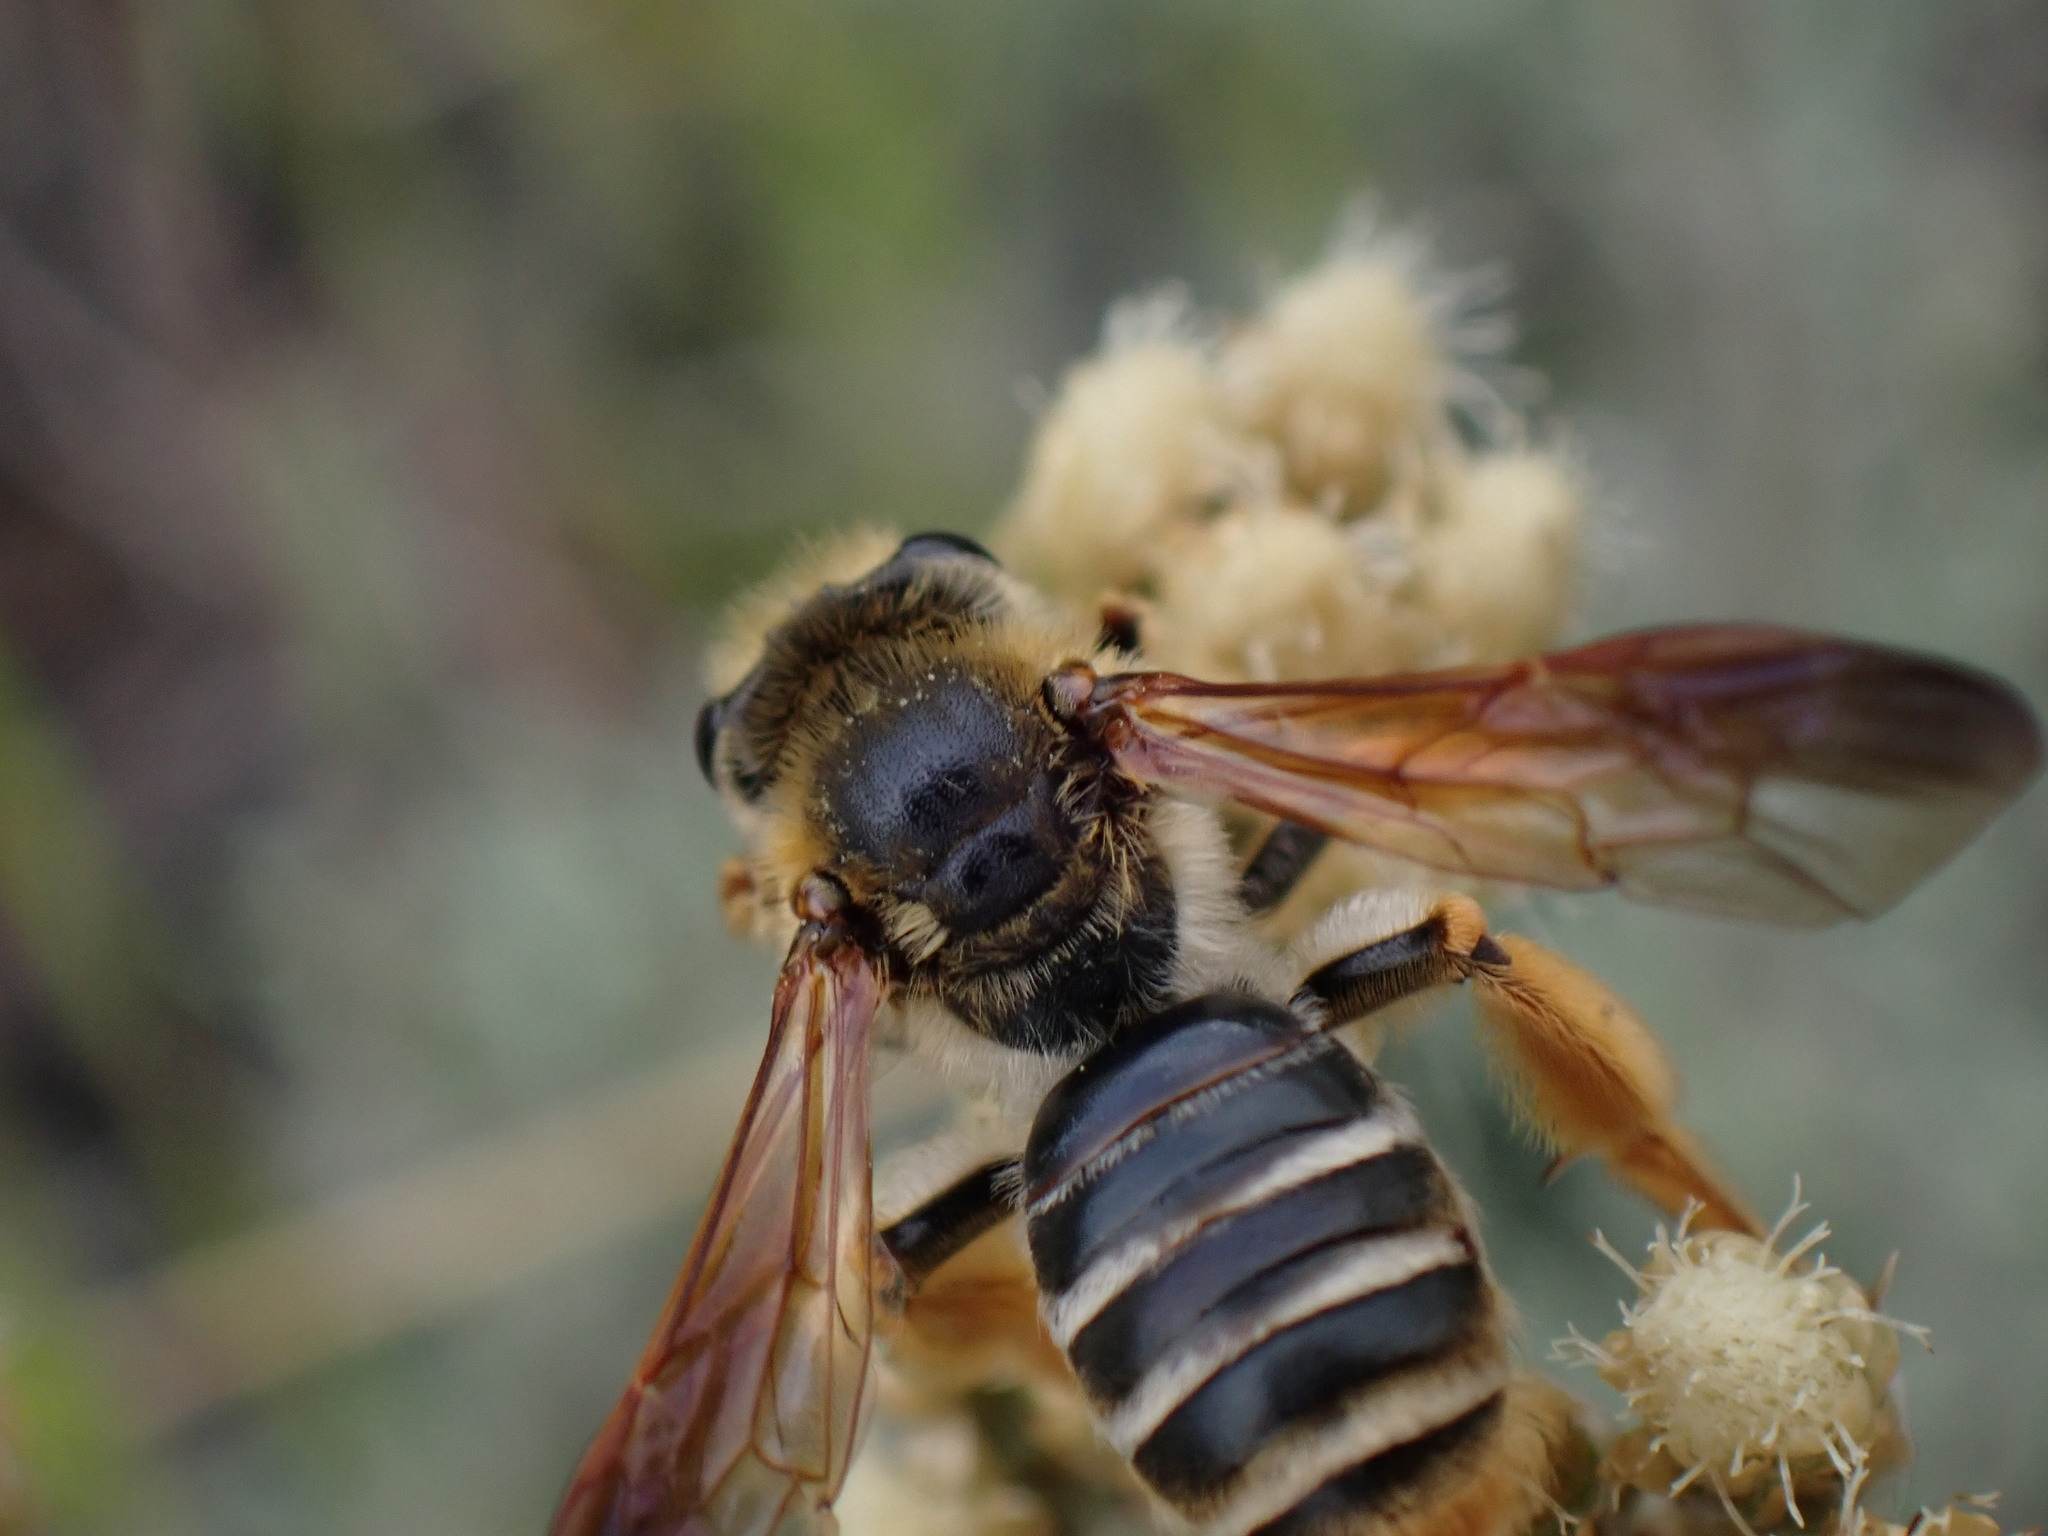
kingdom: Animalia
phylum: Arthropoda
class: Insecta
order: Hymenoptera
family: Andrenidae
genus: Andrena
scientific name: Andrena prunorum
